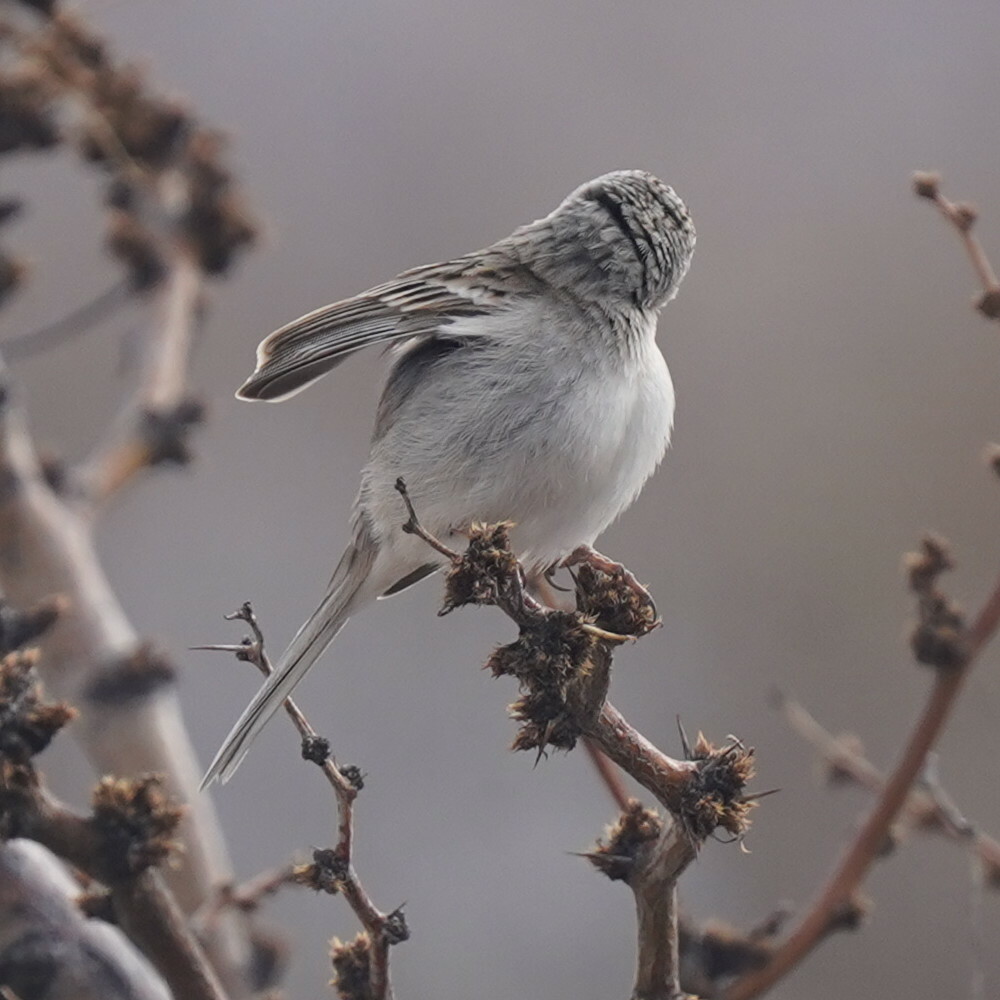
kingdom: Animalia
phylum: Chordata
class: Aves
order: Passeriformes
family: Passerellidae
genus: Spizella
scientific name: Spizella breweri
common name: Brewer's sparrow
